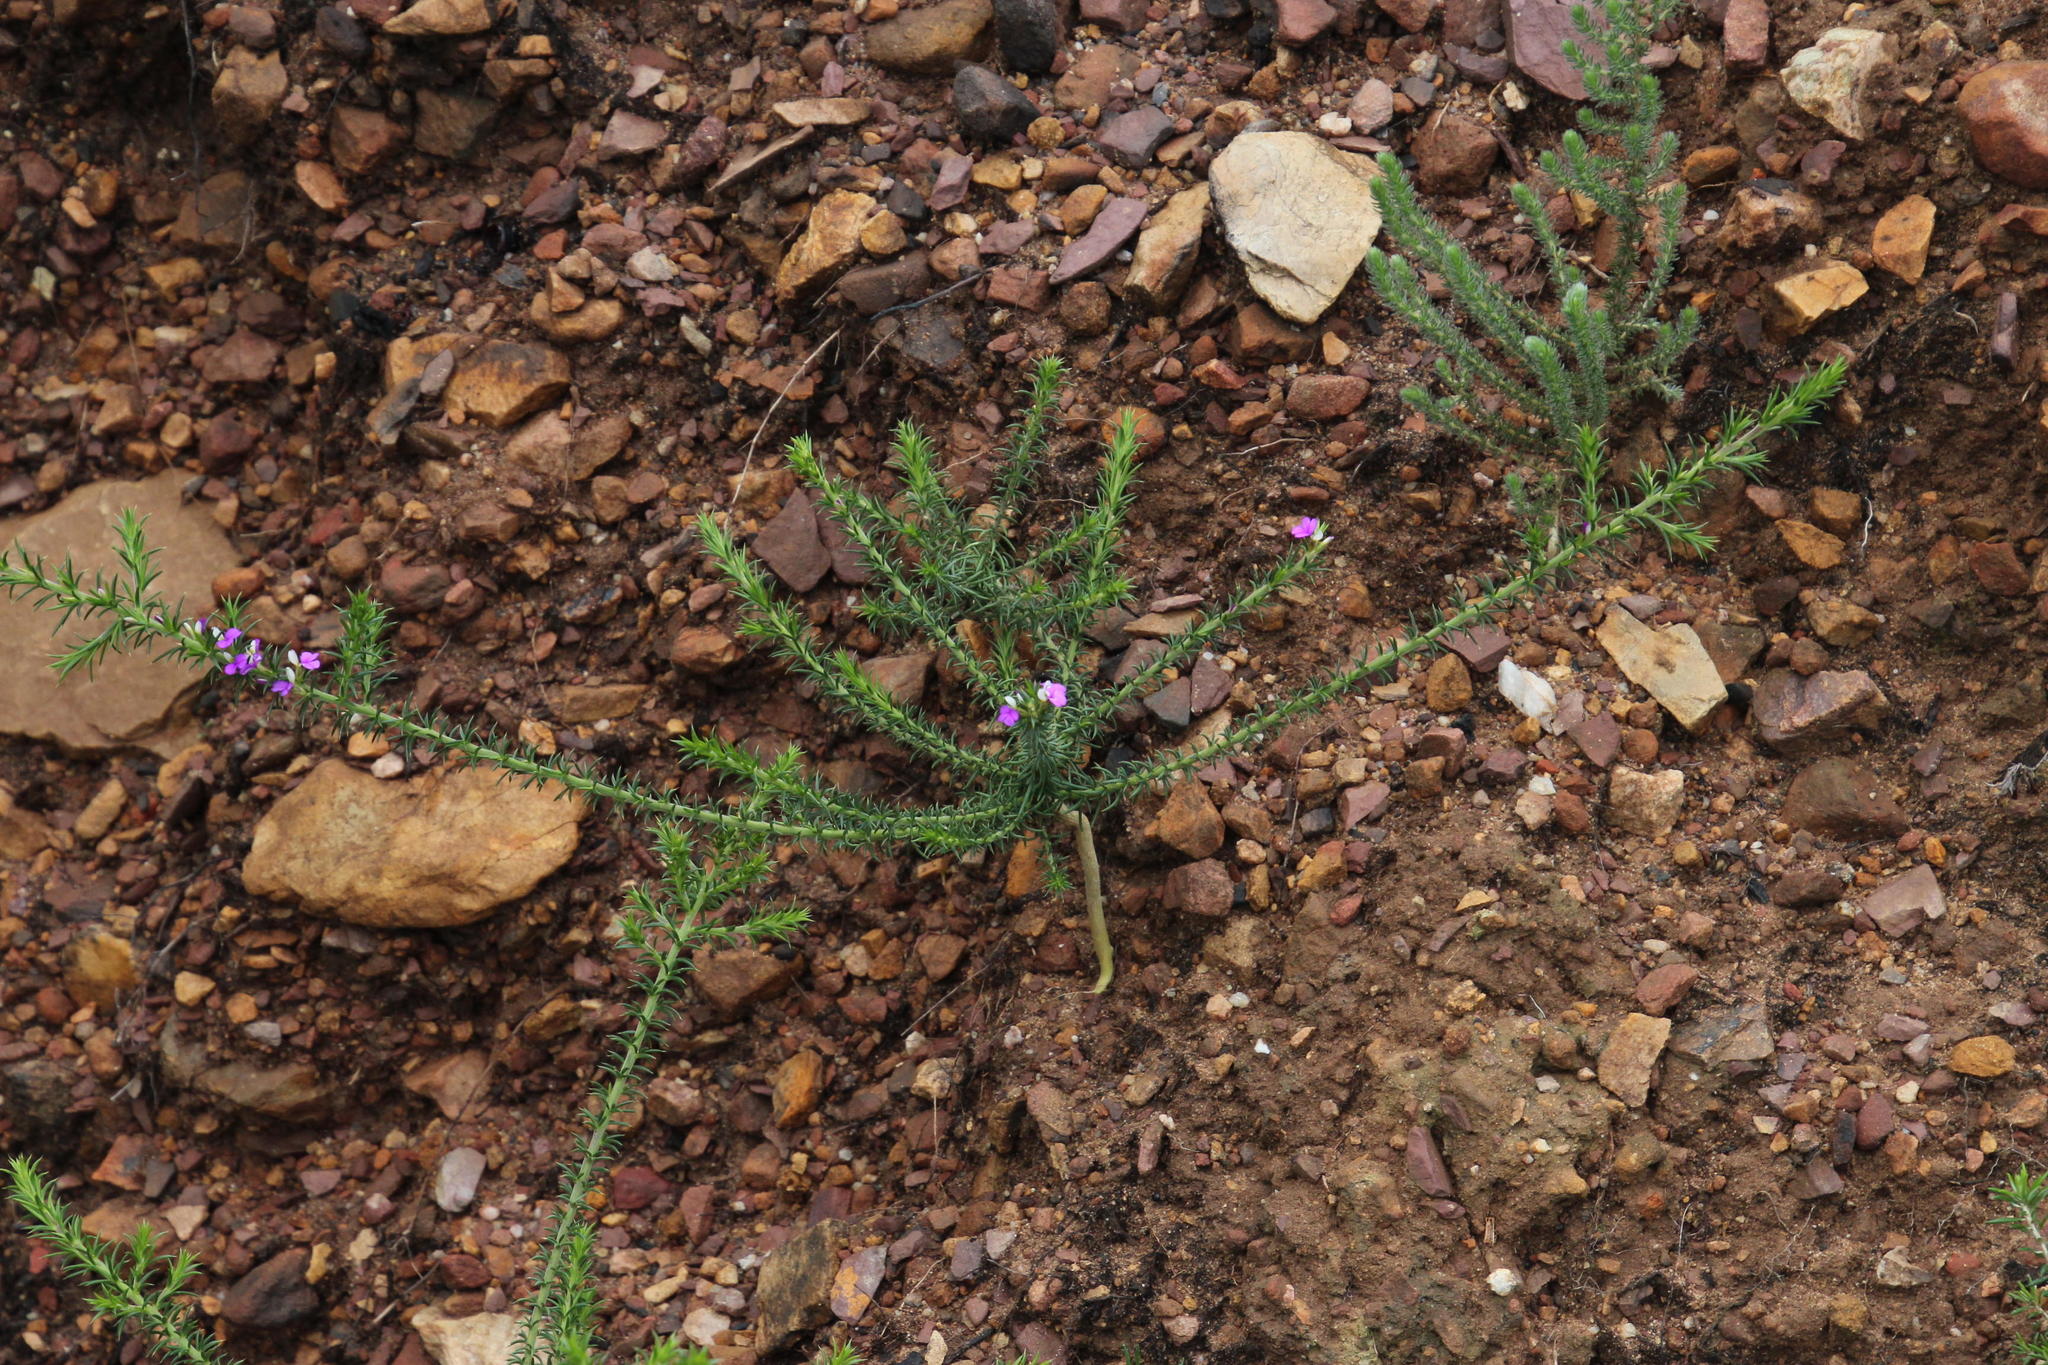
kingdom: Plantae
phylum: Tracheophyta
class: Magnoliopsida
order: Fabales
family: Polygalaceae
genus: Muraltia
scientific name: Muraltia heisteria
